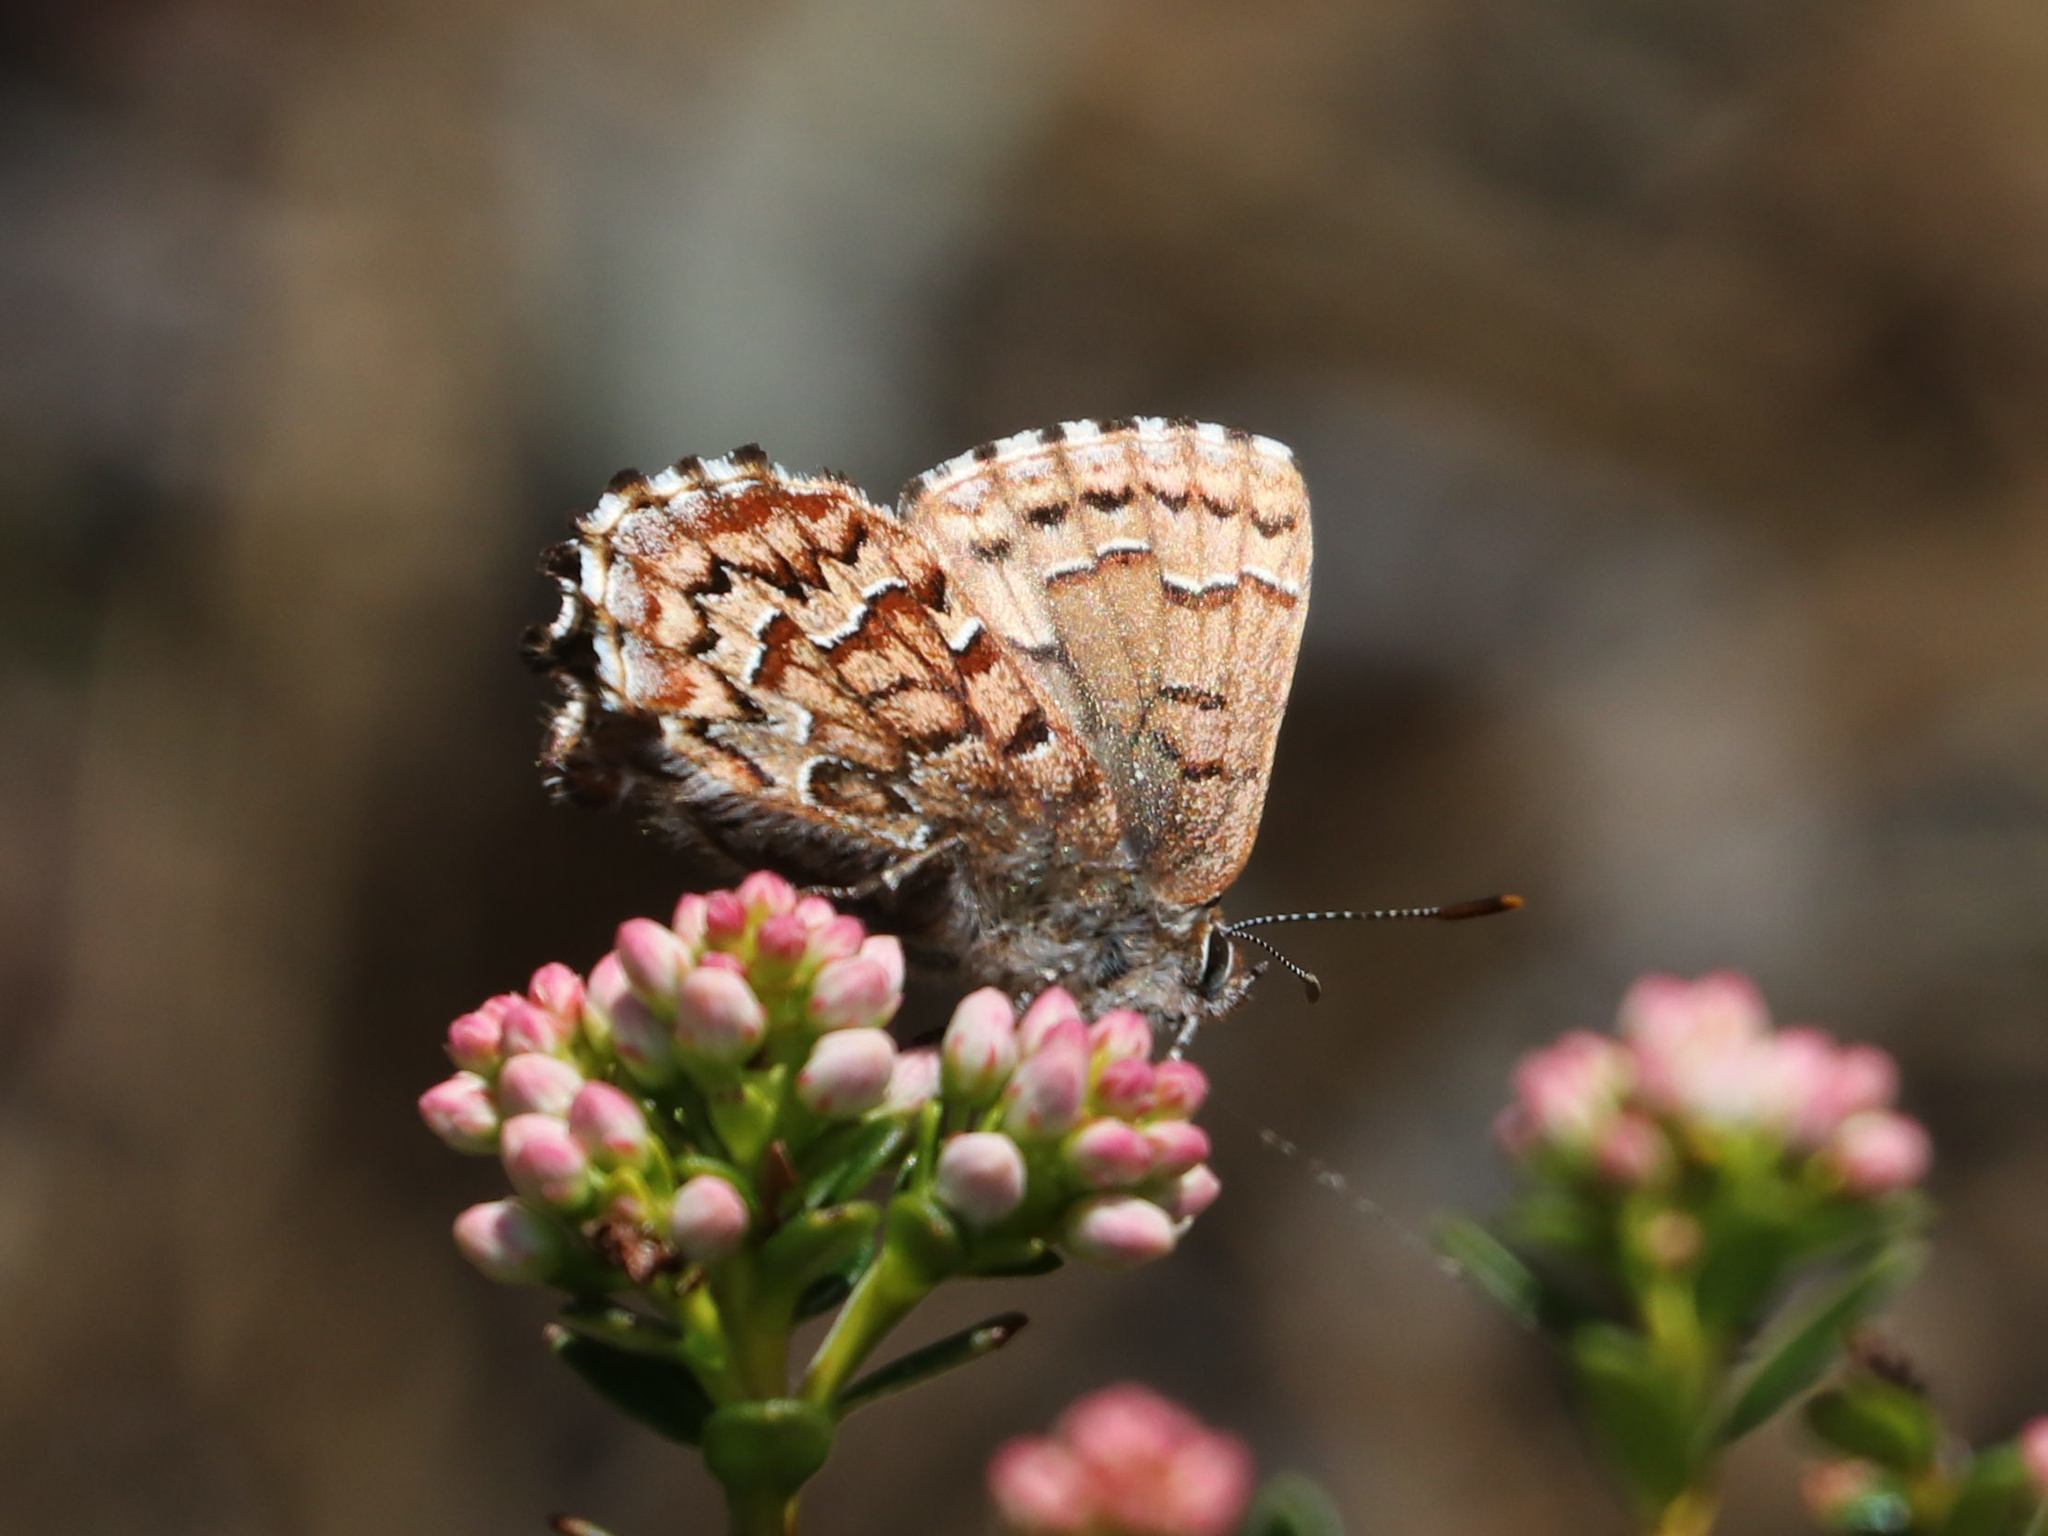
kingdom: Animalia
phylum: Arthropoda
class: Insecta
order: Lepidoptera
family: Lycaenidae
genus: Incisalia
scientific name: Incisalia niphon
